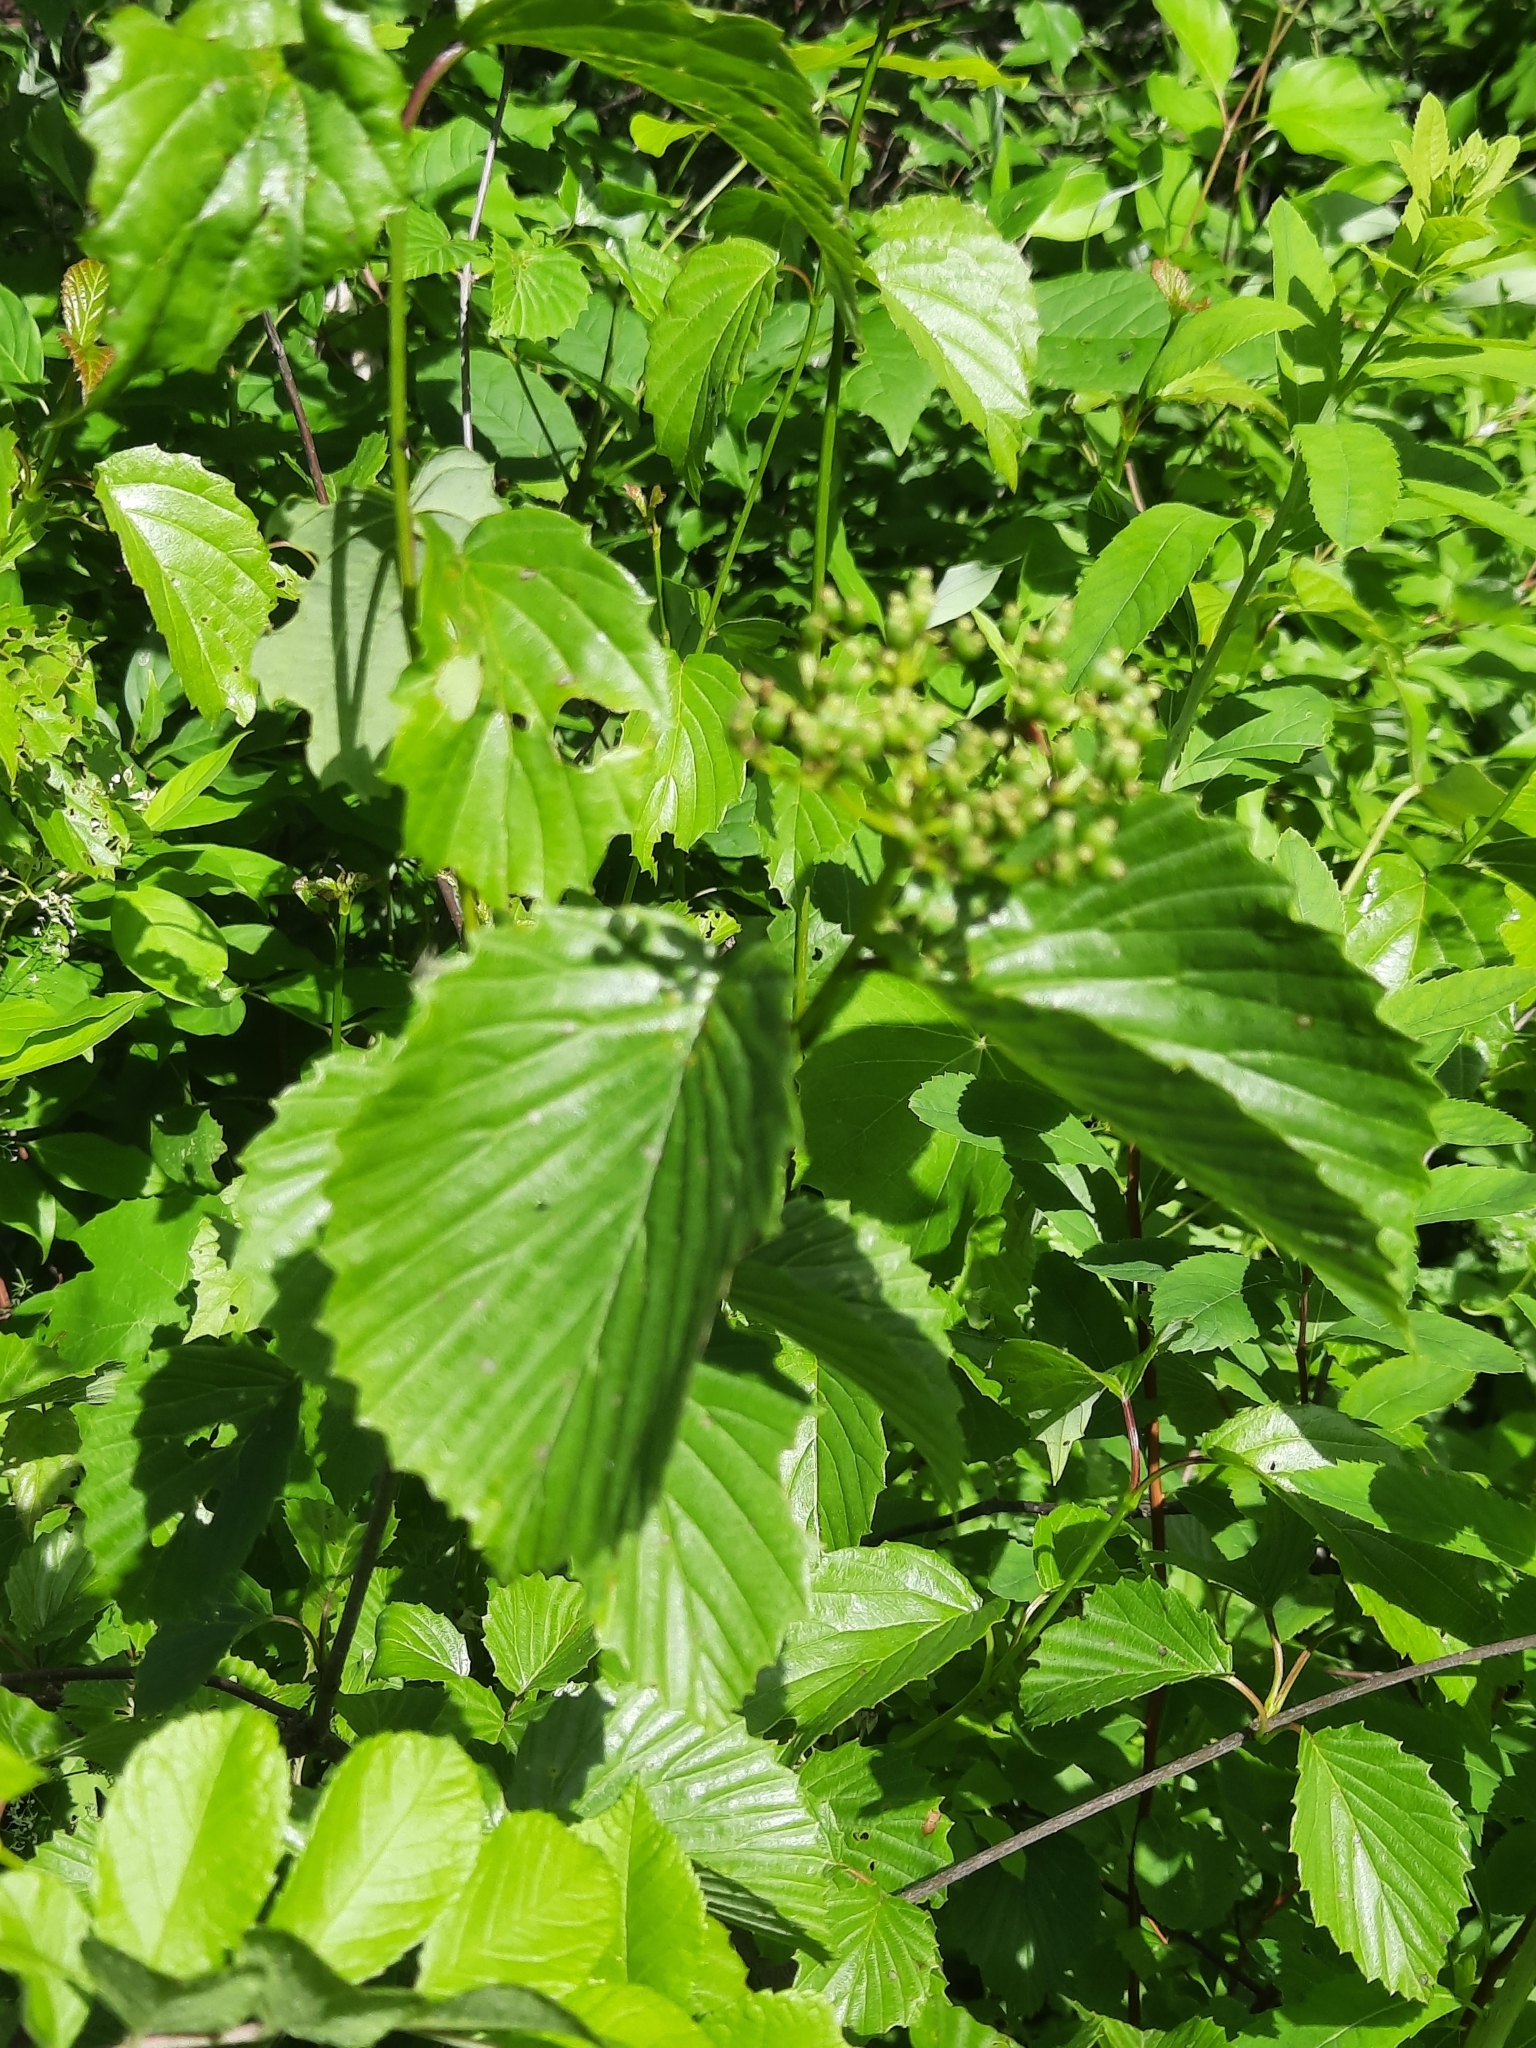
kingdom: Plantae
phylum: Tracheophyta
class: Magnoliopsida
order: Dipsacales
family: Viburnaceae
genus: Viburnum
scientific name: Viburnum recognitum
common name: Northern arrow-wood
